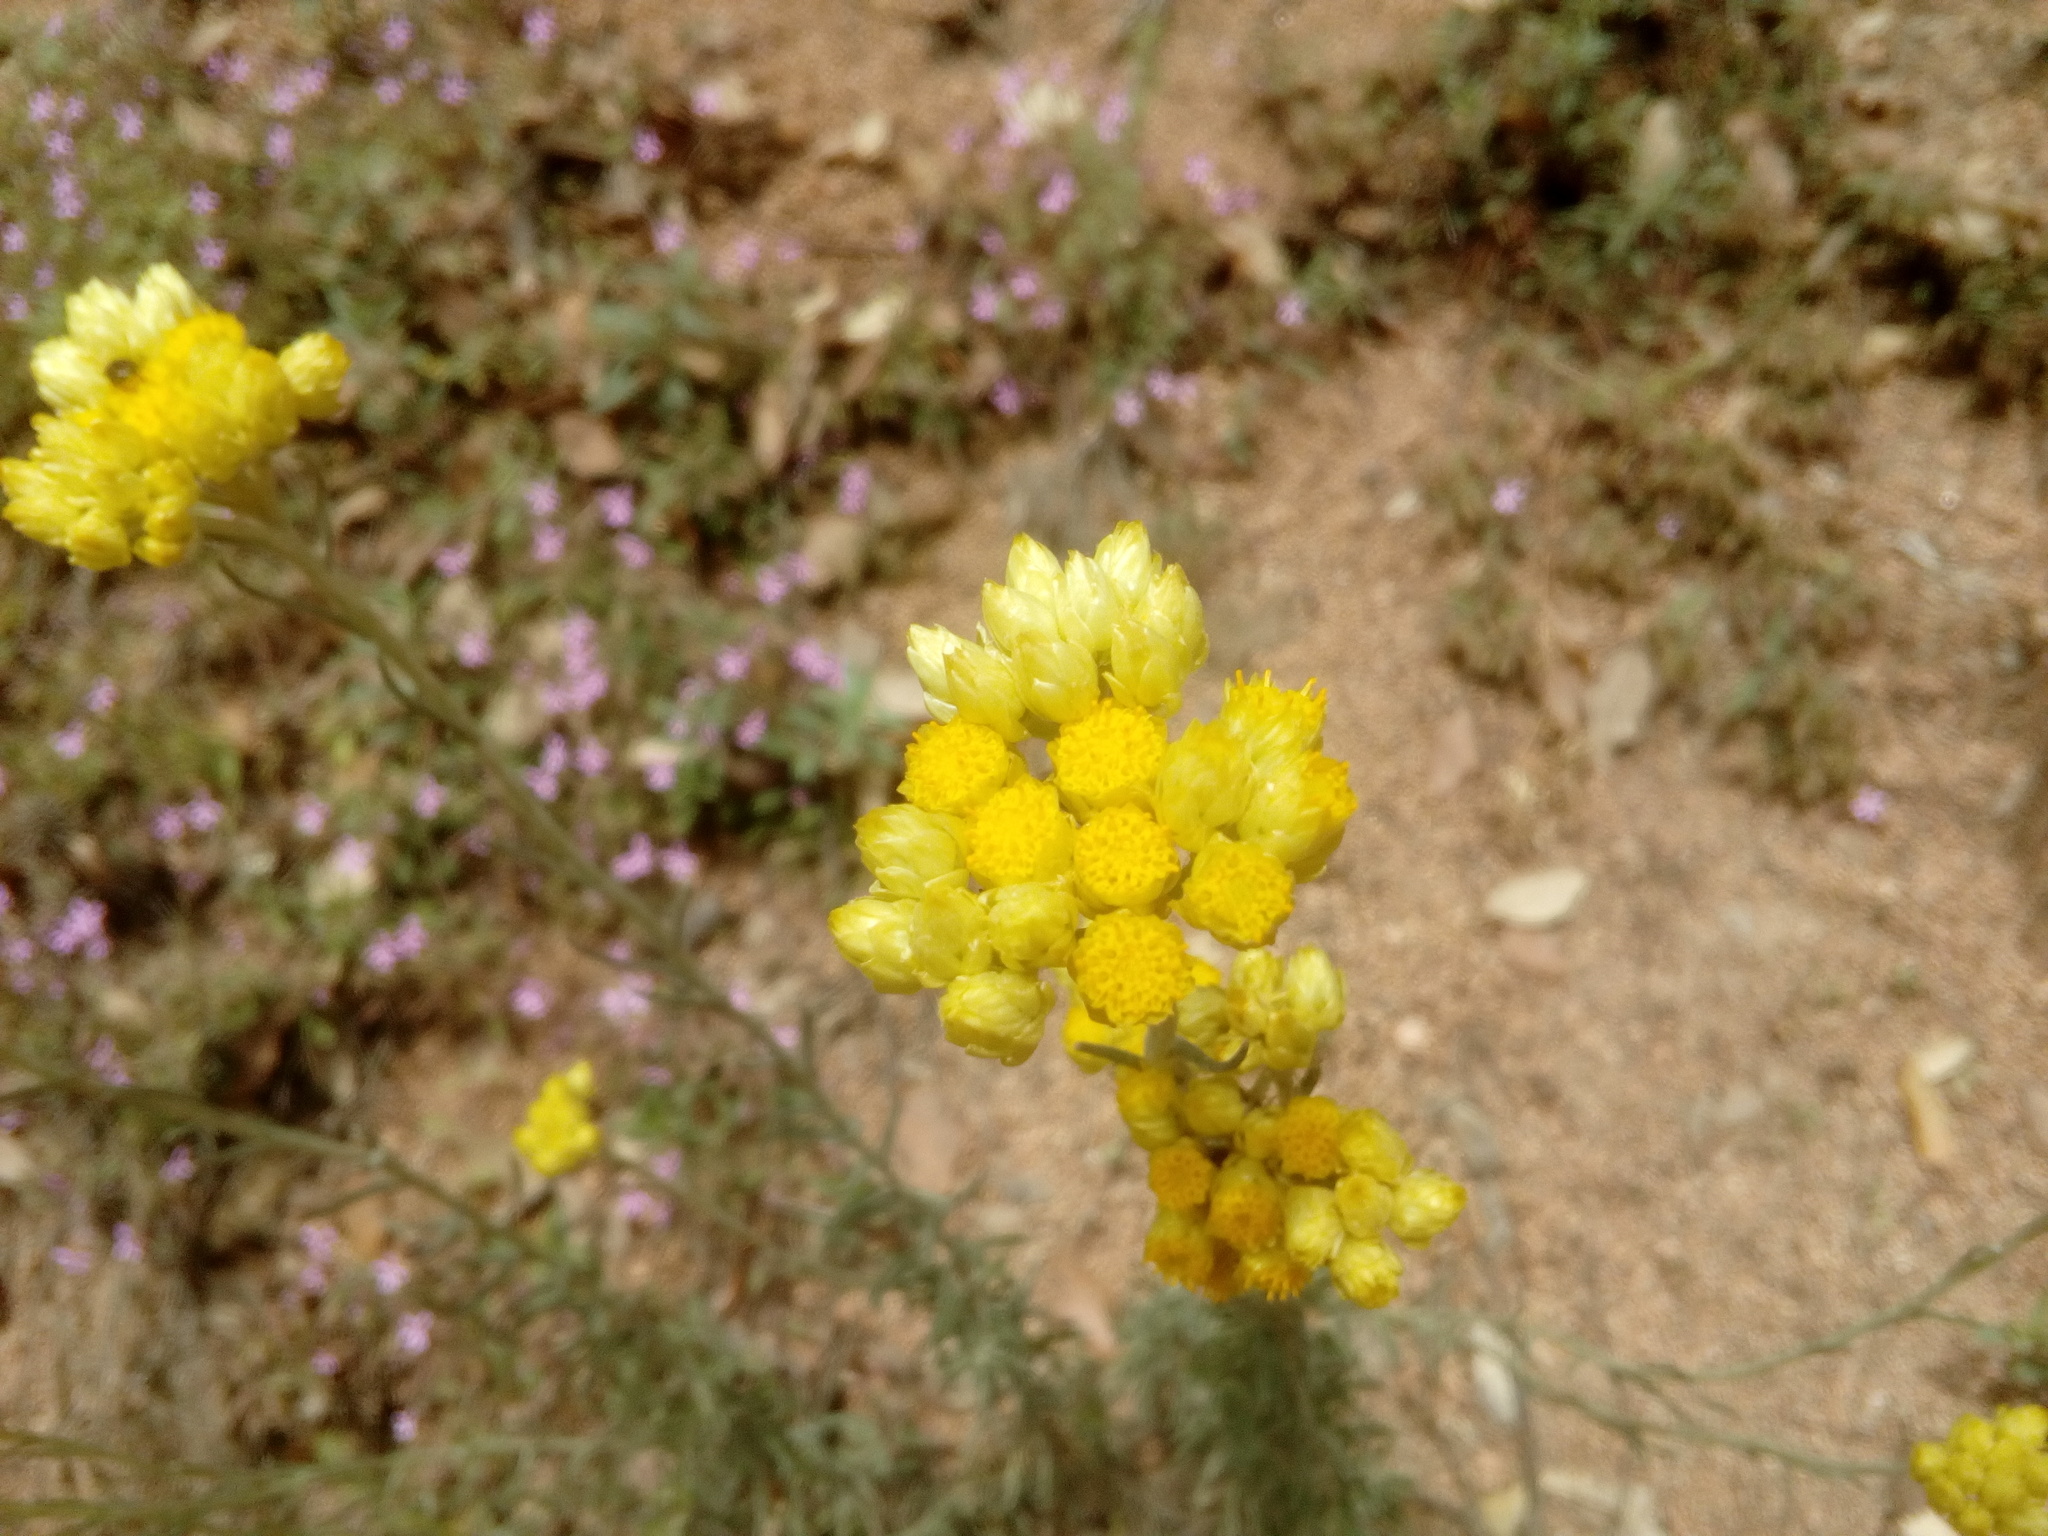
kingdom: Plantae
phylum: Tracheophyta
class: Magnoliopsida
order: Asterales
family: Asteraceae
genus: Helichrysum
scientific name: Helichrysum stoechas
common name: Goldilocks
